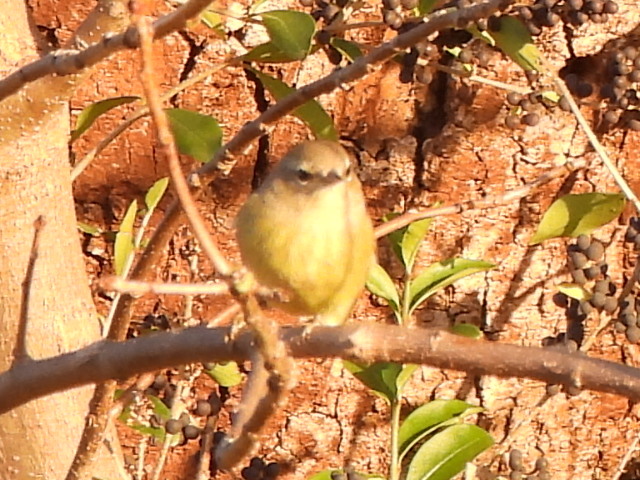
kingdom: Animalia
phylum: Chordata
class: Aves
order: Passeriformes
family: Parulidae
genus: Leiothlypis
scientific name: Leiothlypis celata
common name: Orange-crowned warbler
